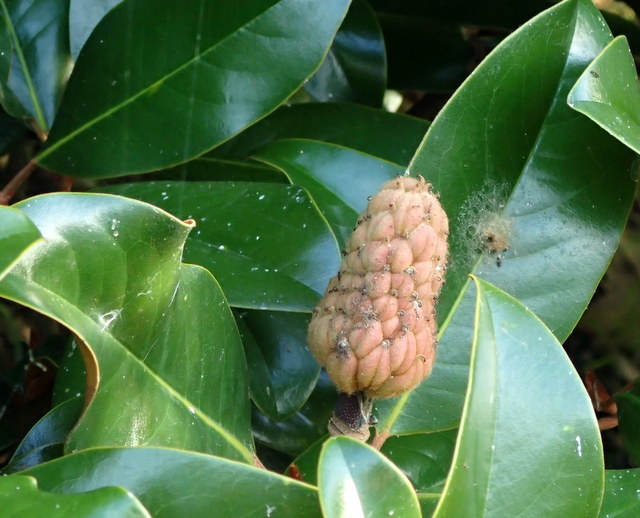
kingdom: Plantae
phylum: Tracheophyta
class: Magnoliopsida
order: Magnoliales
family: Magnoliaceae
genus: Magnolia
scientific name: Magnolia grandiflora
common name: Southern magnolia
